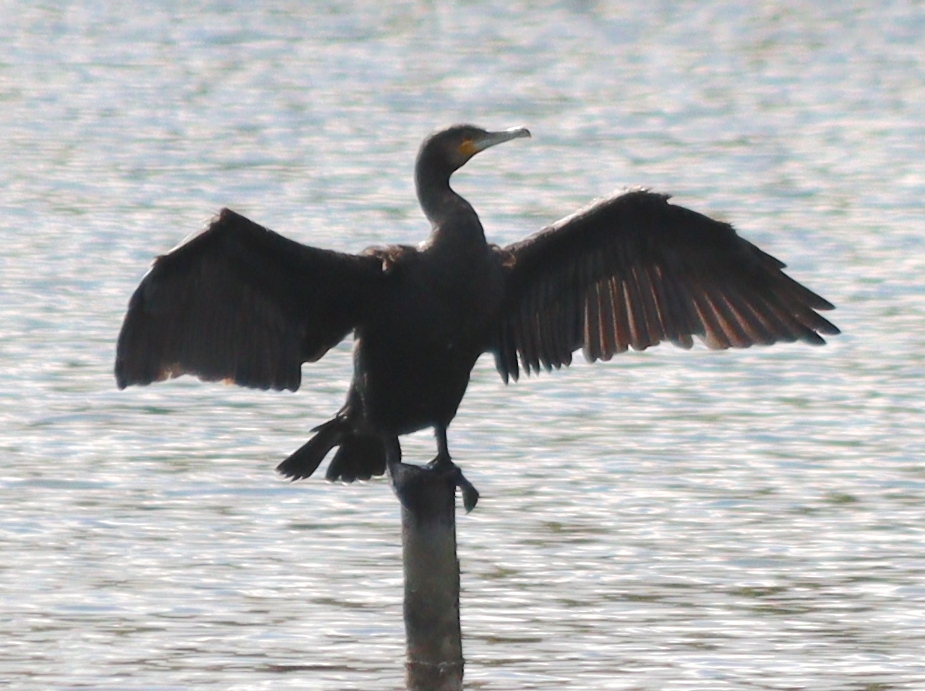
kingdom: Animalia
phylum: Chordata
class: Aves
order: Suliformes
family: Phalacrocoracidae
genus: Phalacrocorax
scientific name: Phalacrocorax carbo
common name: Great cormorant
